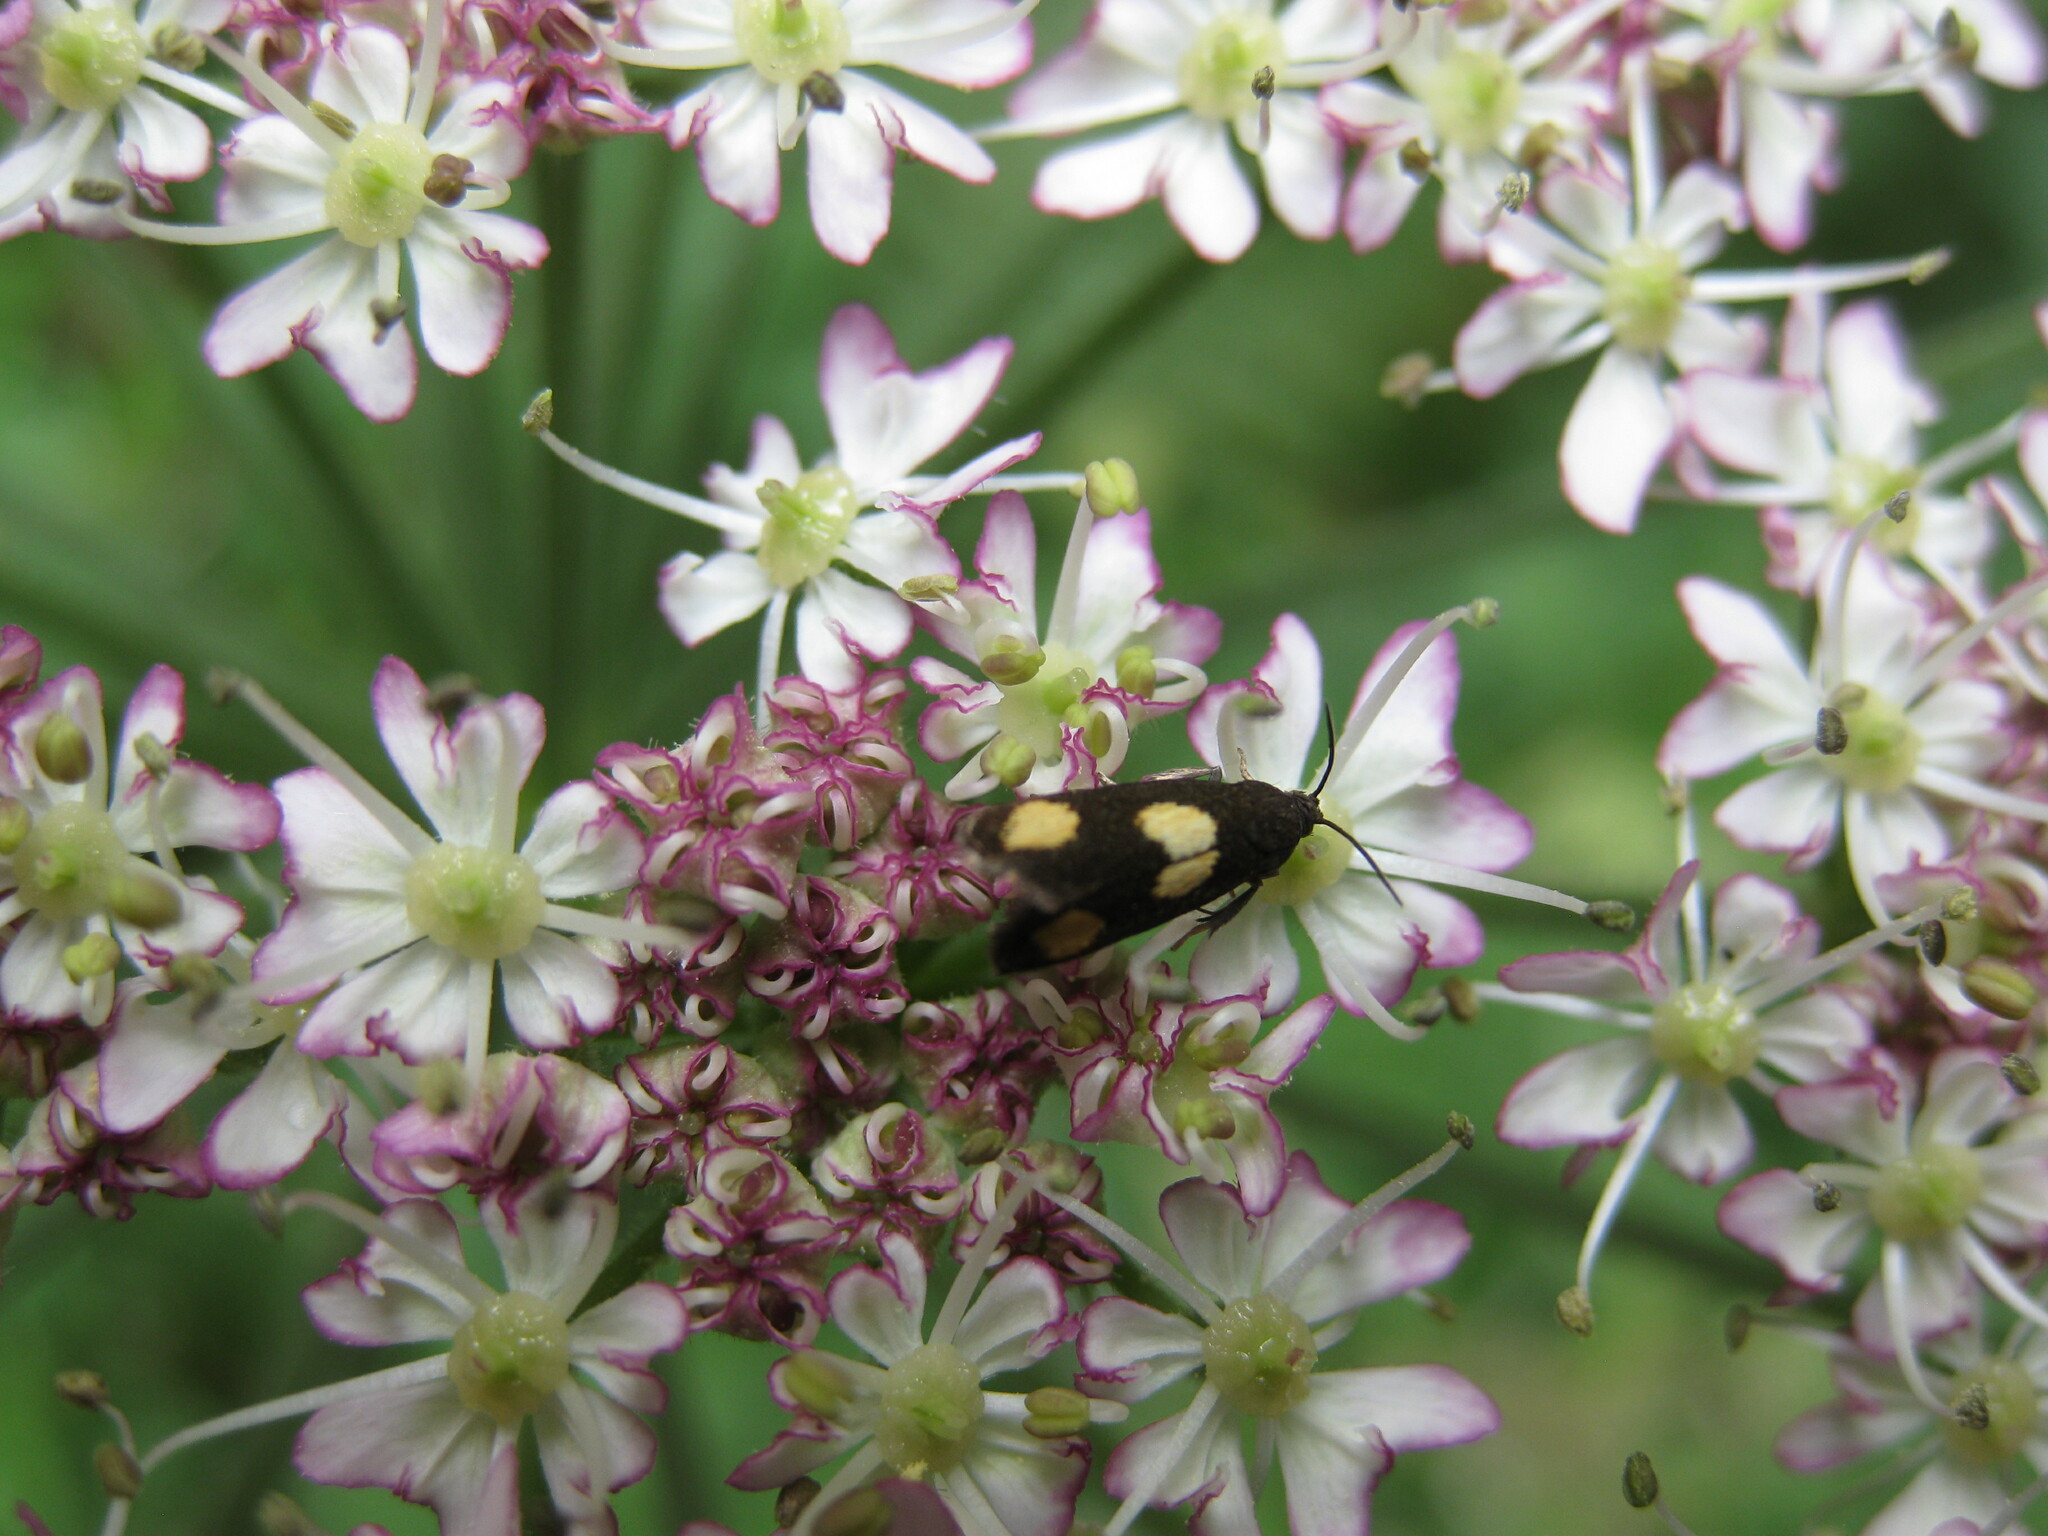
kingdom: Animalia
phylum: Arthropoda
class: Insecta
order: Lepidoptera
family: Tortricidae
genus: Pammene
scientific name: Pammene aurana
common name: Orange-spot piercer
